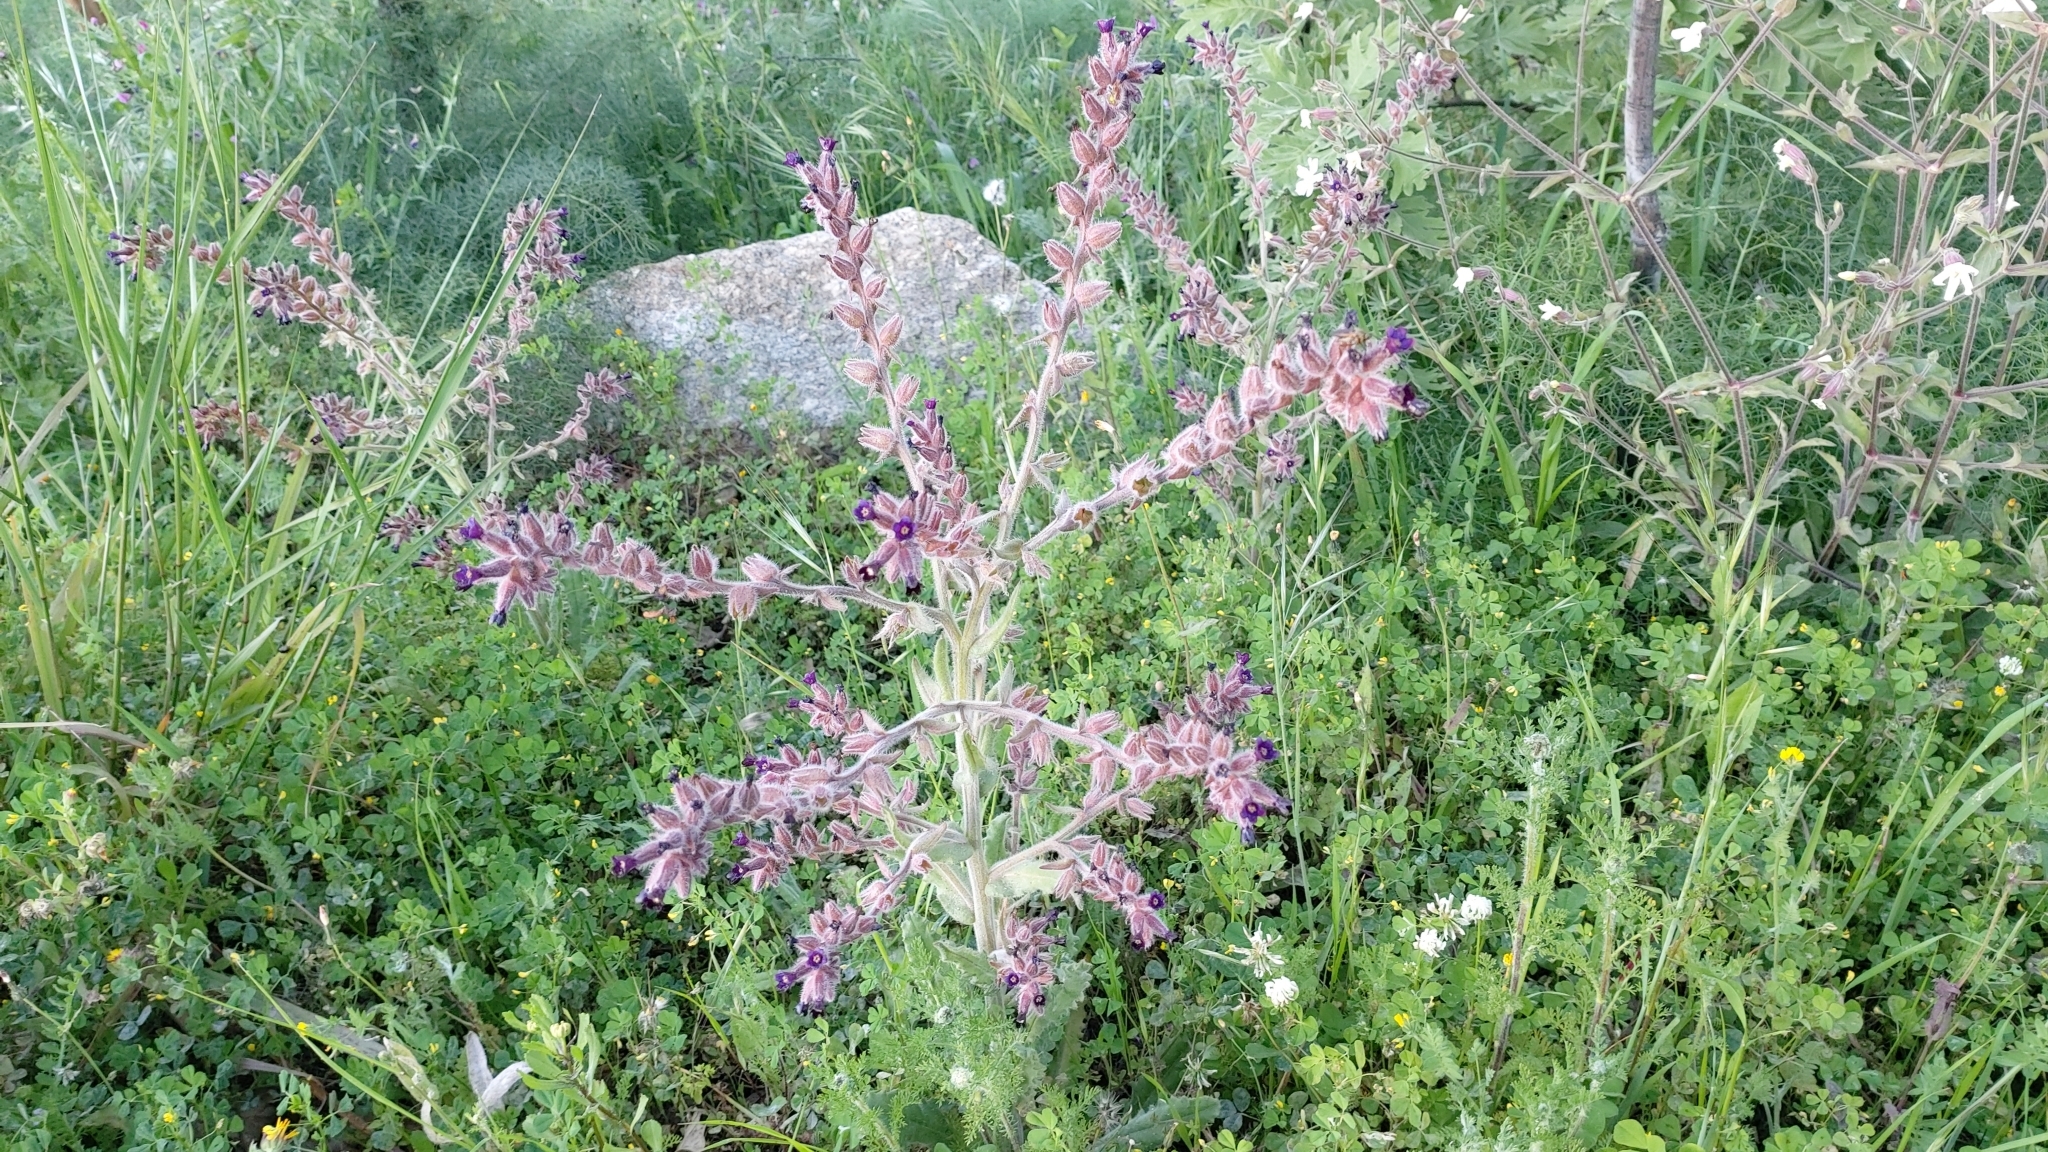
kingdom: Plantae
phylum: Tracheophyta
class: Magnoliopsida
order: Boraginales
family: Boraginaceae
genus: Anchusa
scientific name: Anchusa undulata
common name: Undulate alkanet
